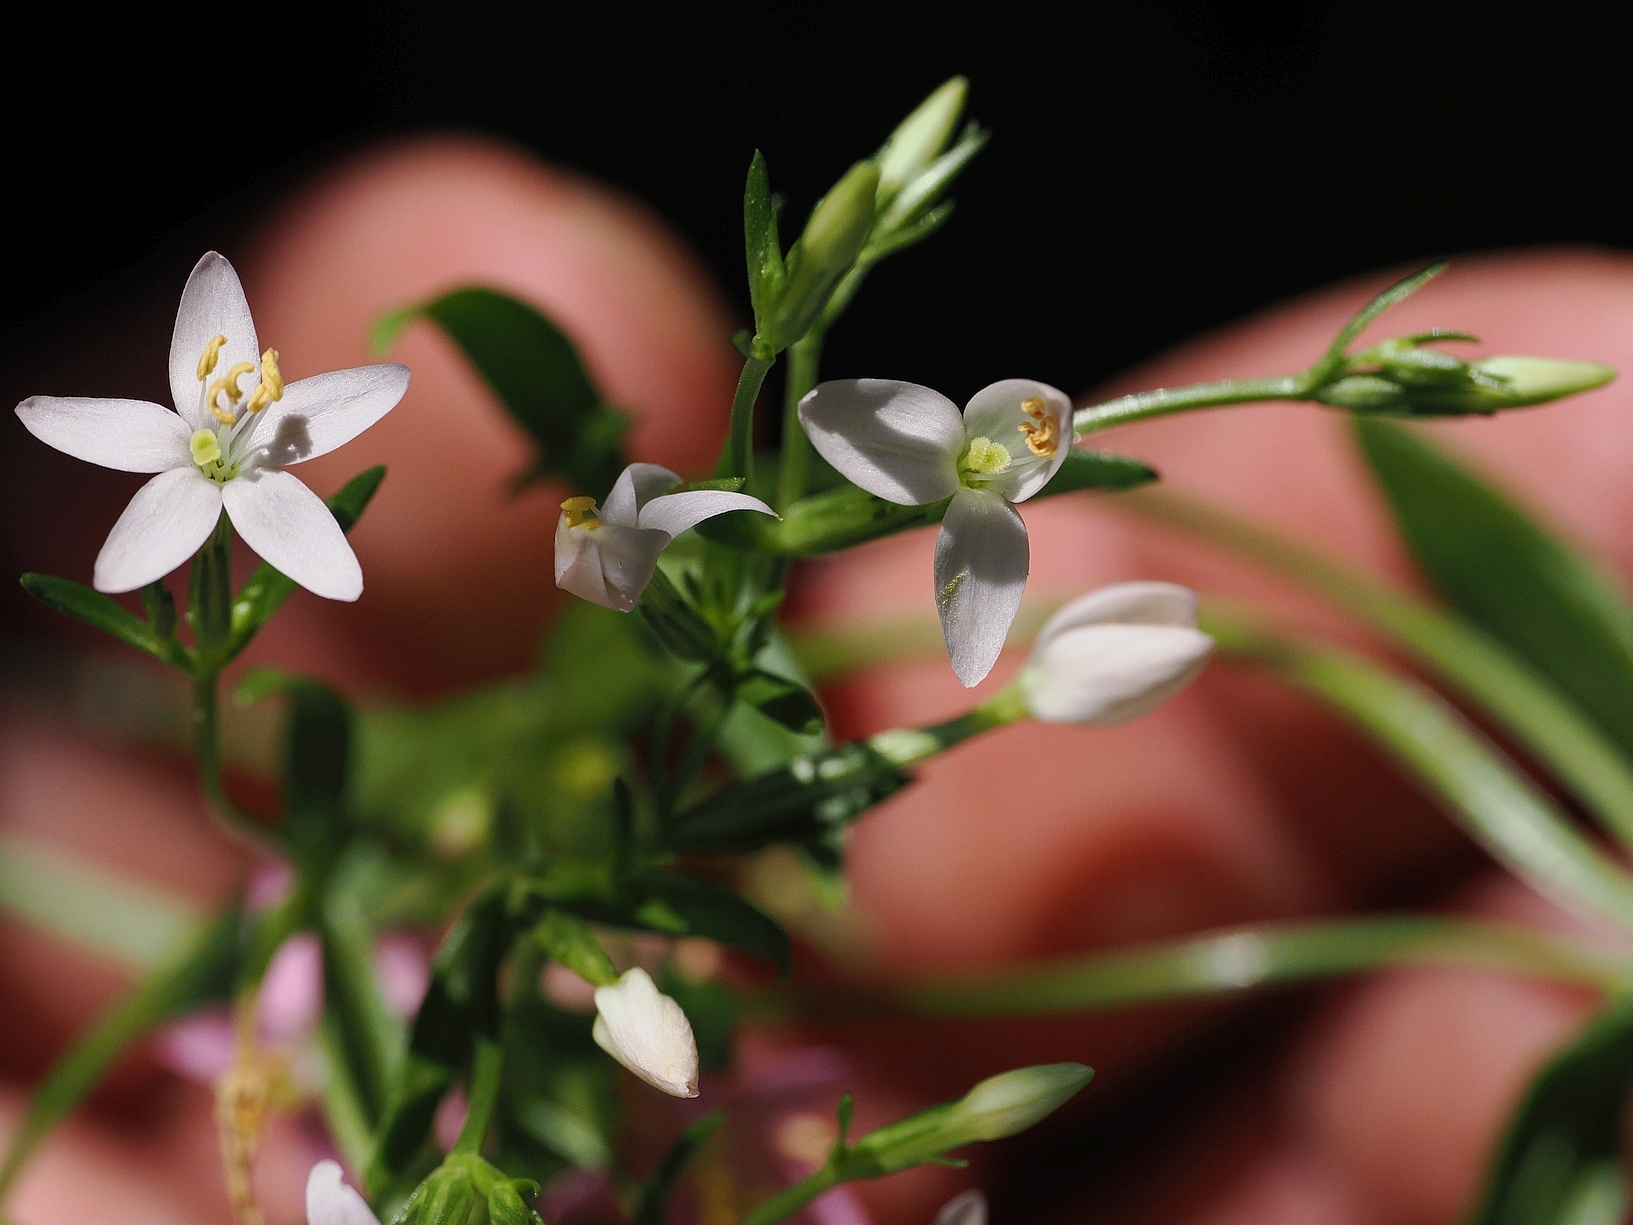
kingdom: Plantae
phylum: Tracheophyta
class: Magnoliopsida
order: Gentianales
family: Gentianaceae
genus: Centaurium
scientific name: Centaurium erythraea
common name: Common centaury
